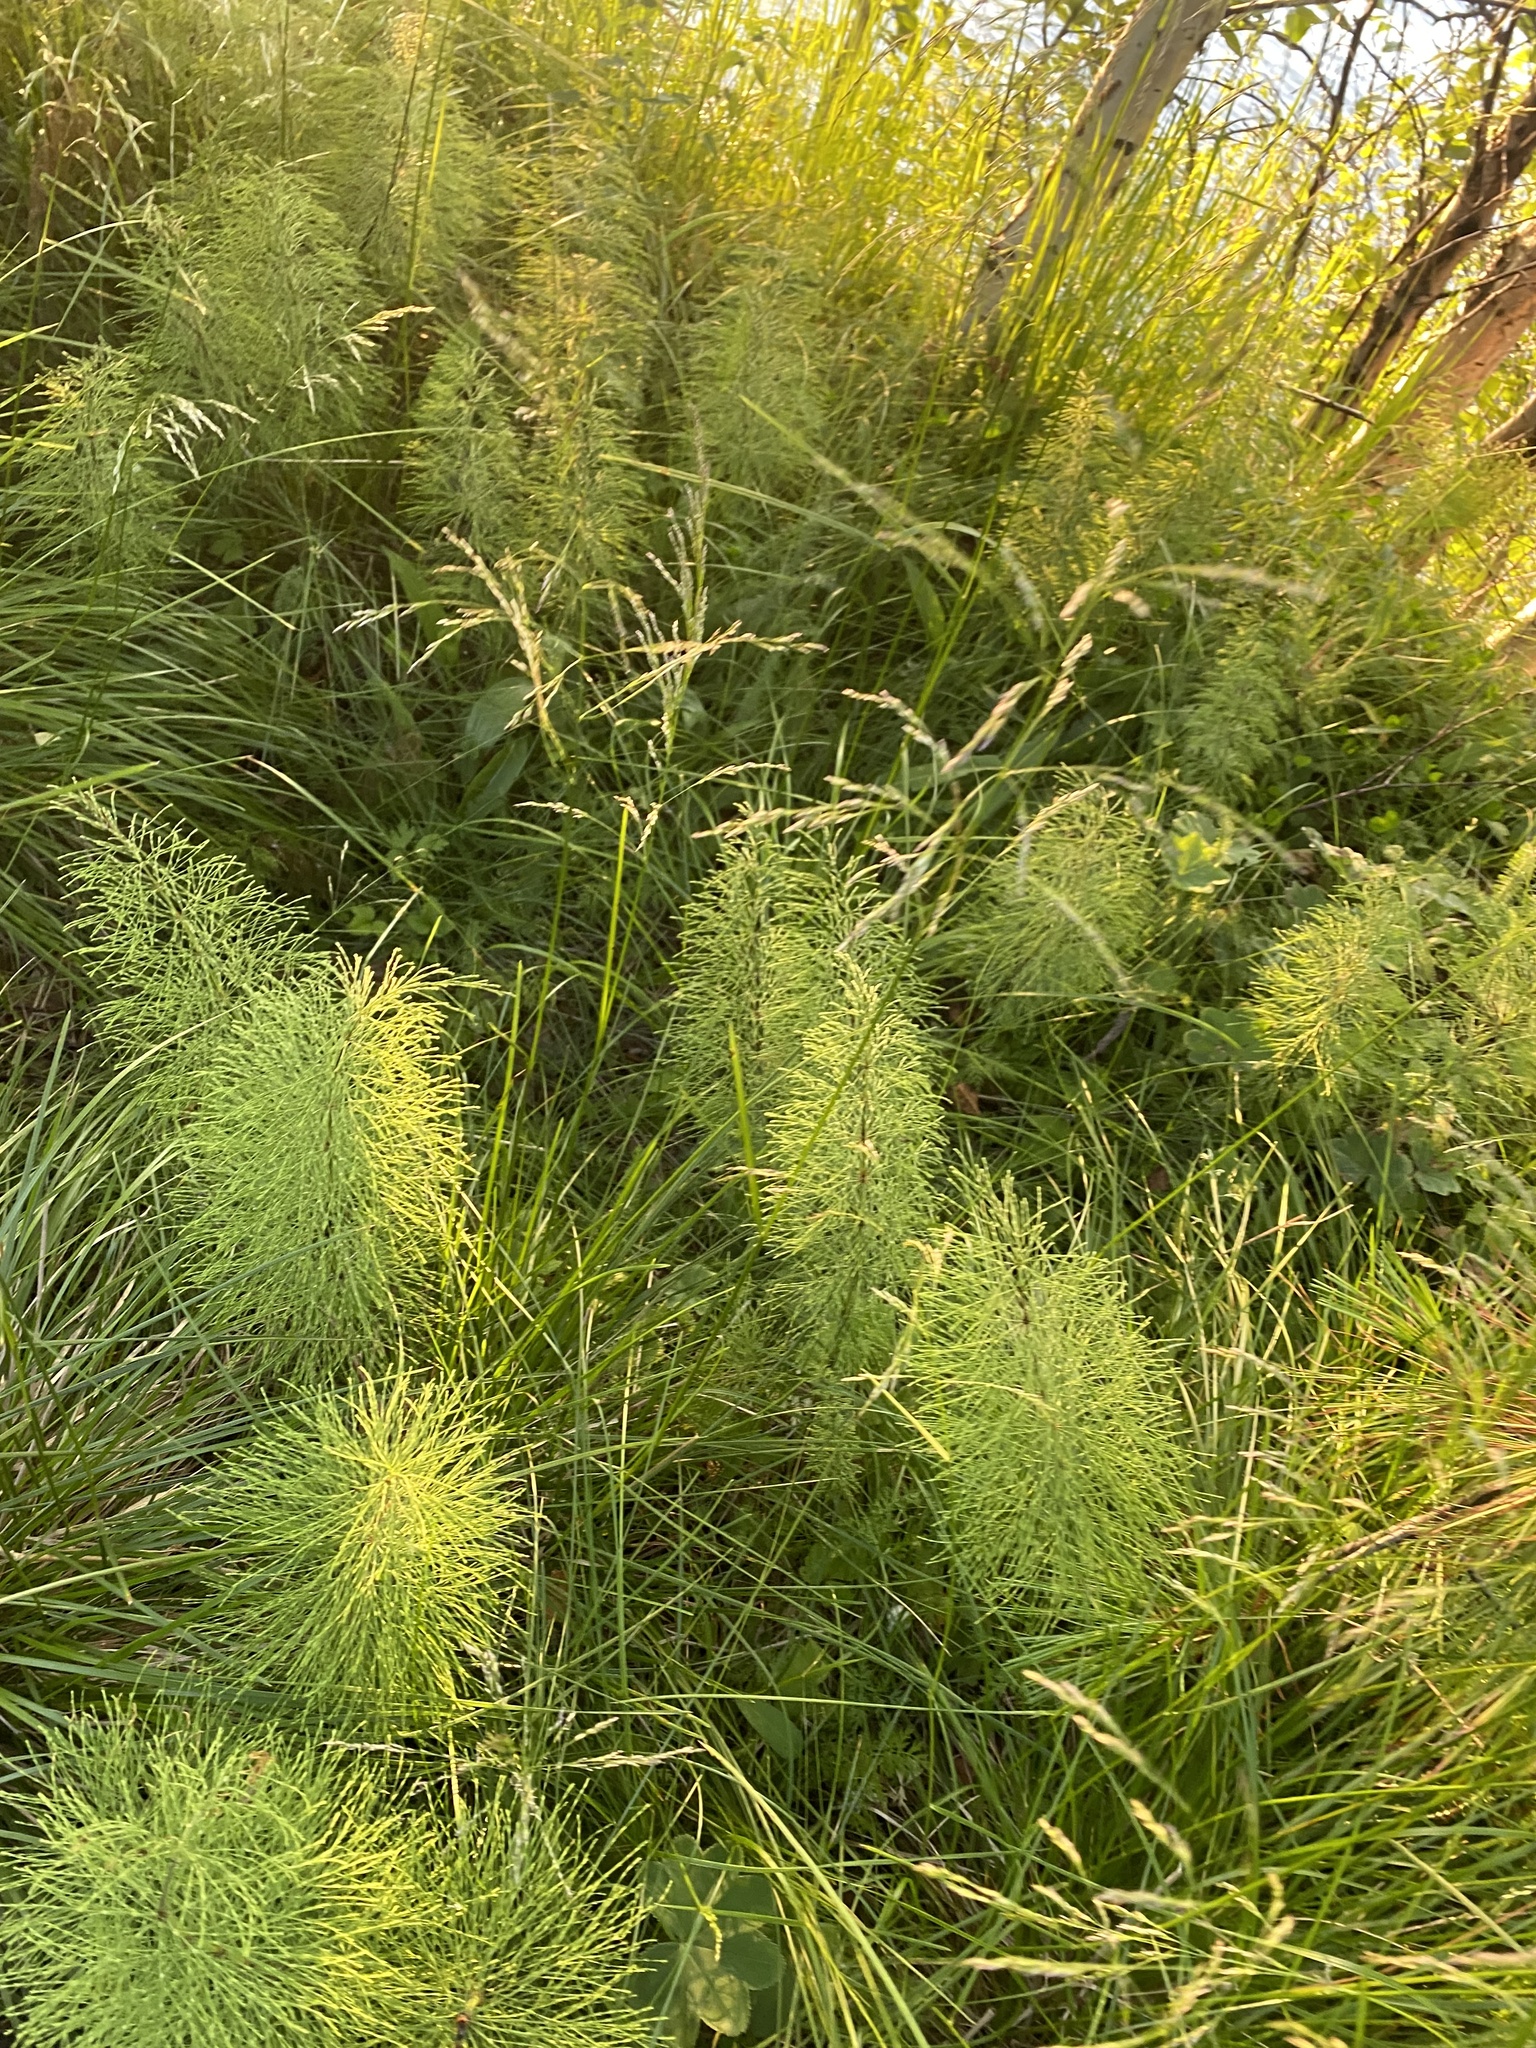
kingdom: Plantae
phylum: Tracheophyta
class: Polypodiopsida
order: Equisetales
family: Equisetaceae
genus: Equisetum
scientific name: Equisetum sylvaticum
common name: Wood horsetail
